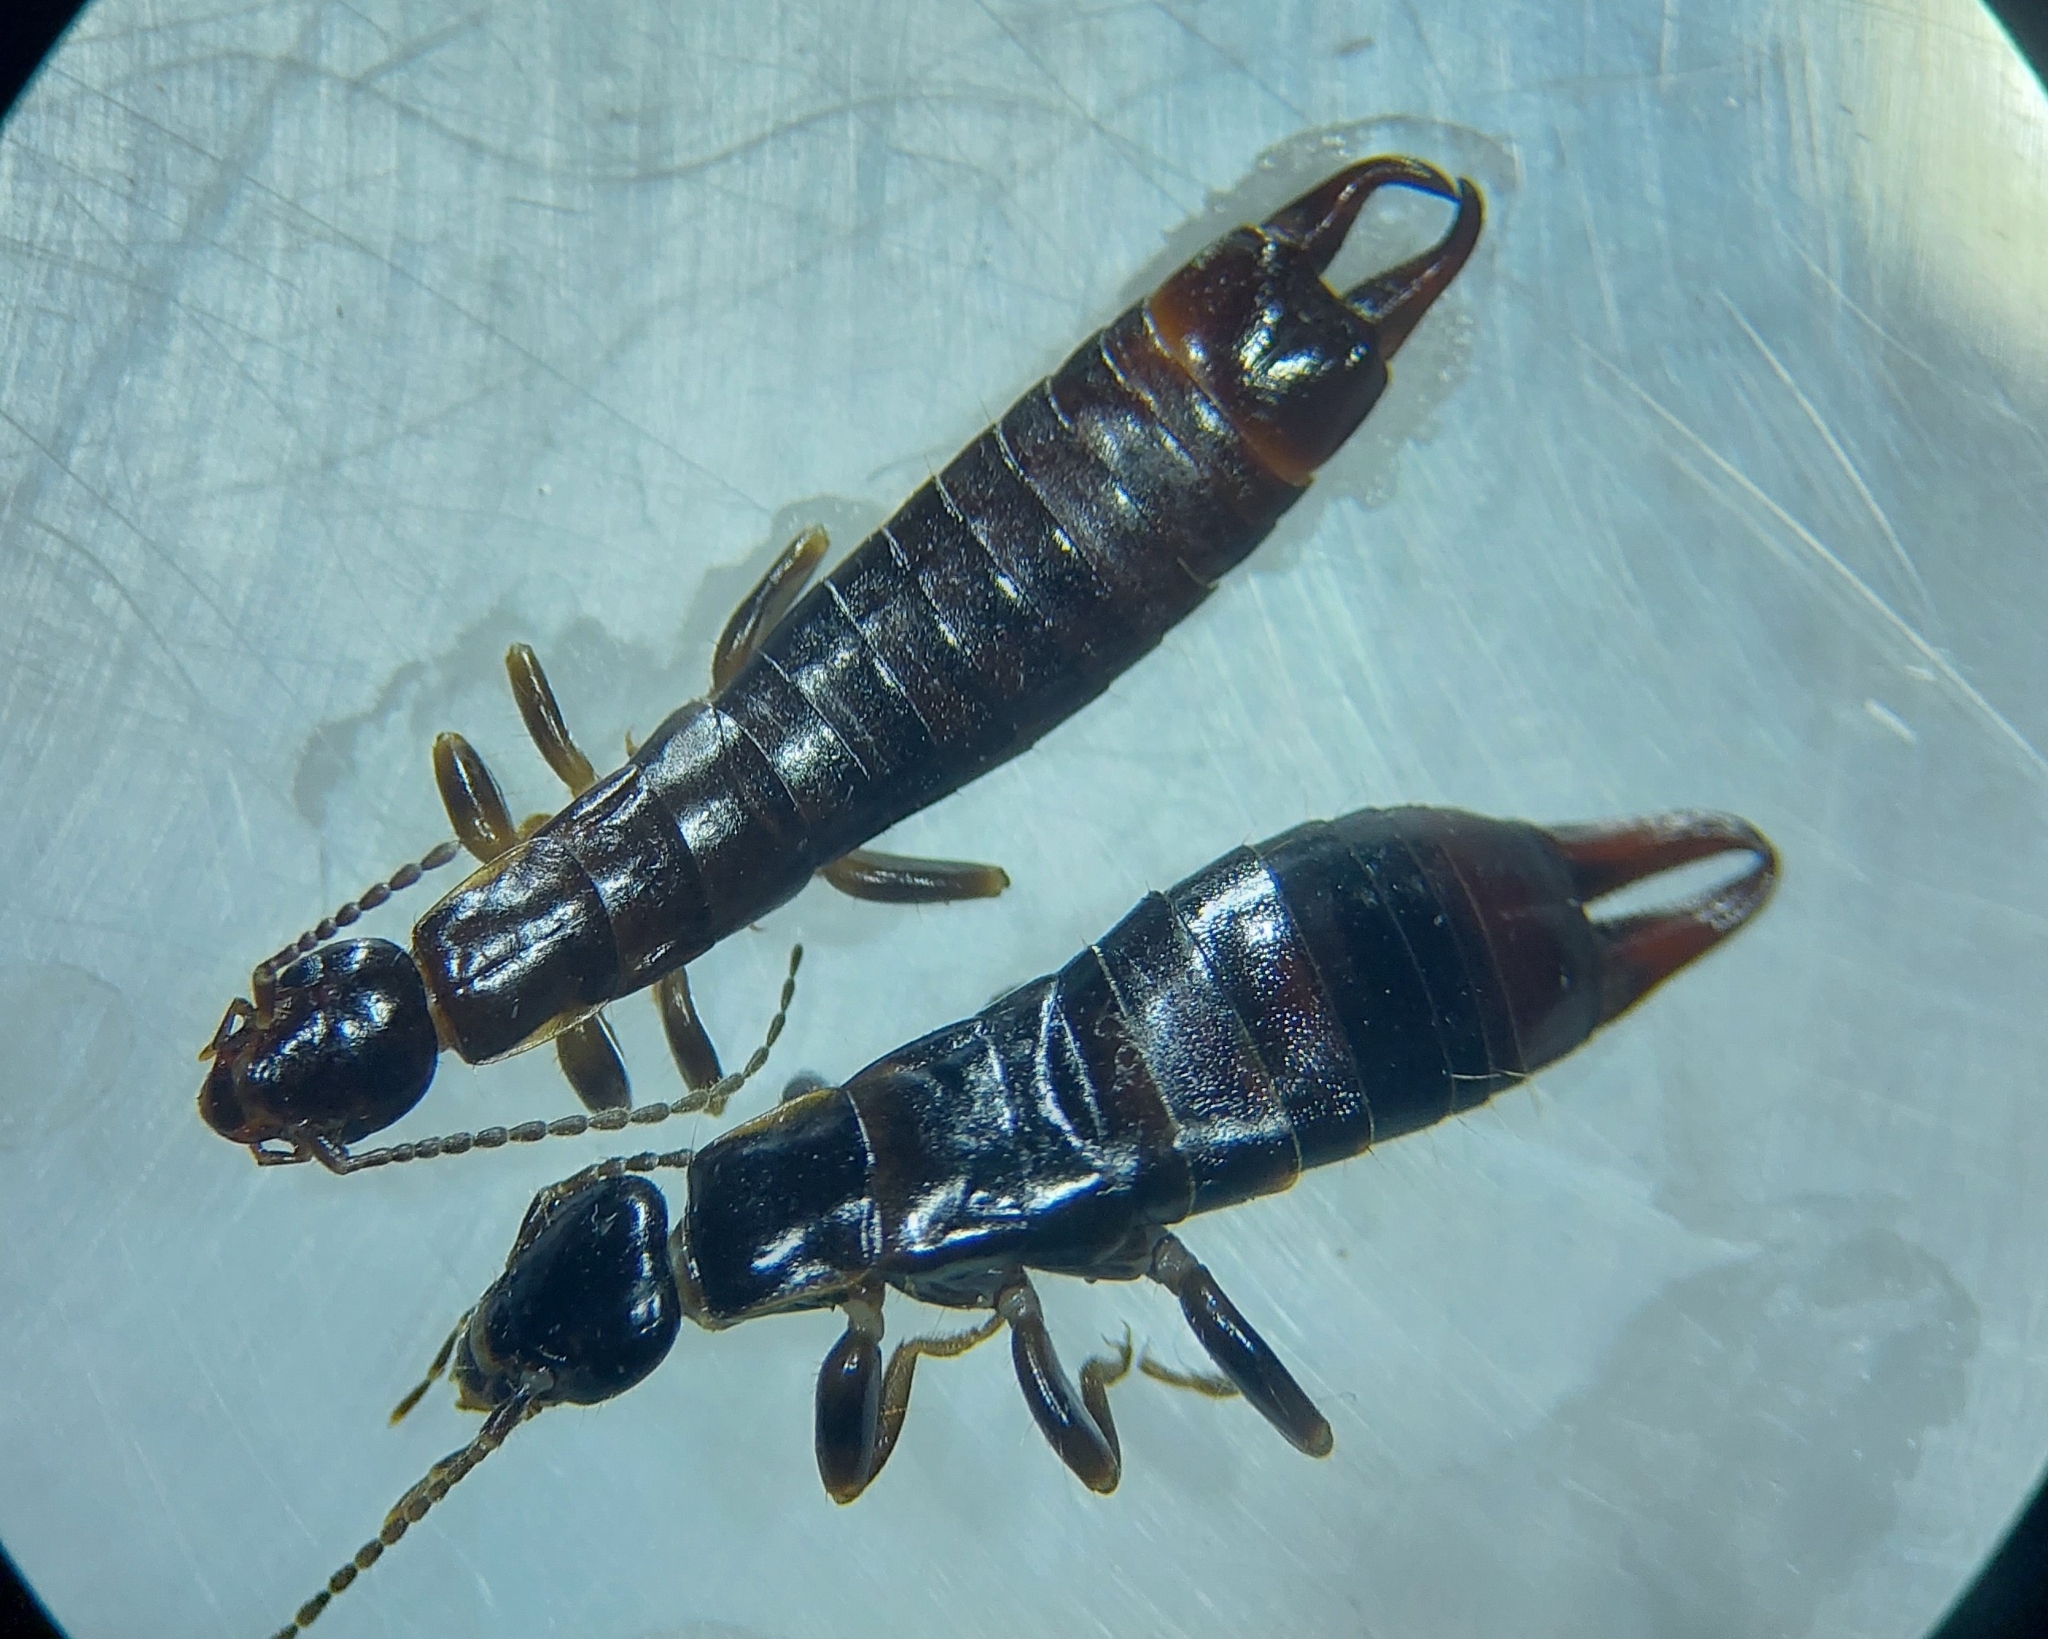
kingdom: Animalia
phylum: Arthropoda
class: Insecta
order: Dermaptera
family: Anisolabididae
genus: Euborellia
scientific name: Euborellia moesta
